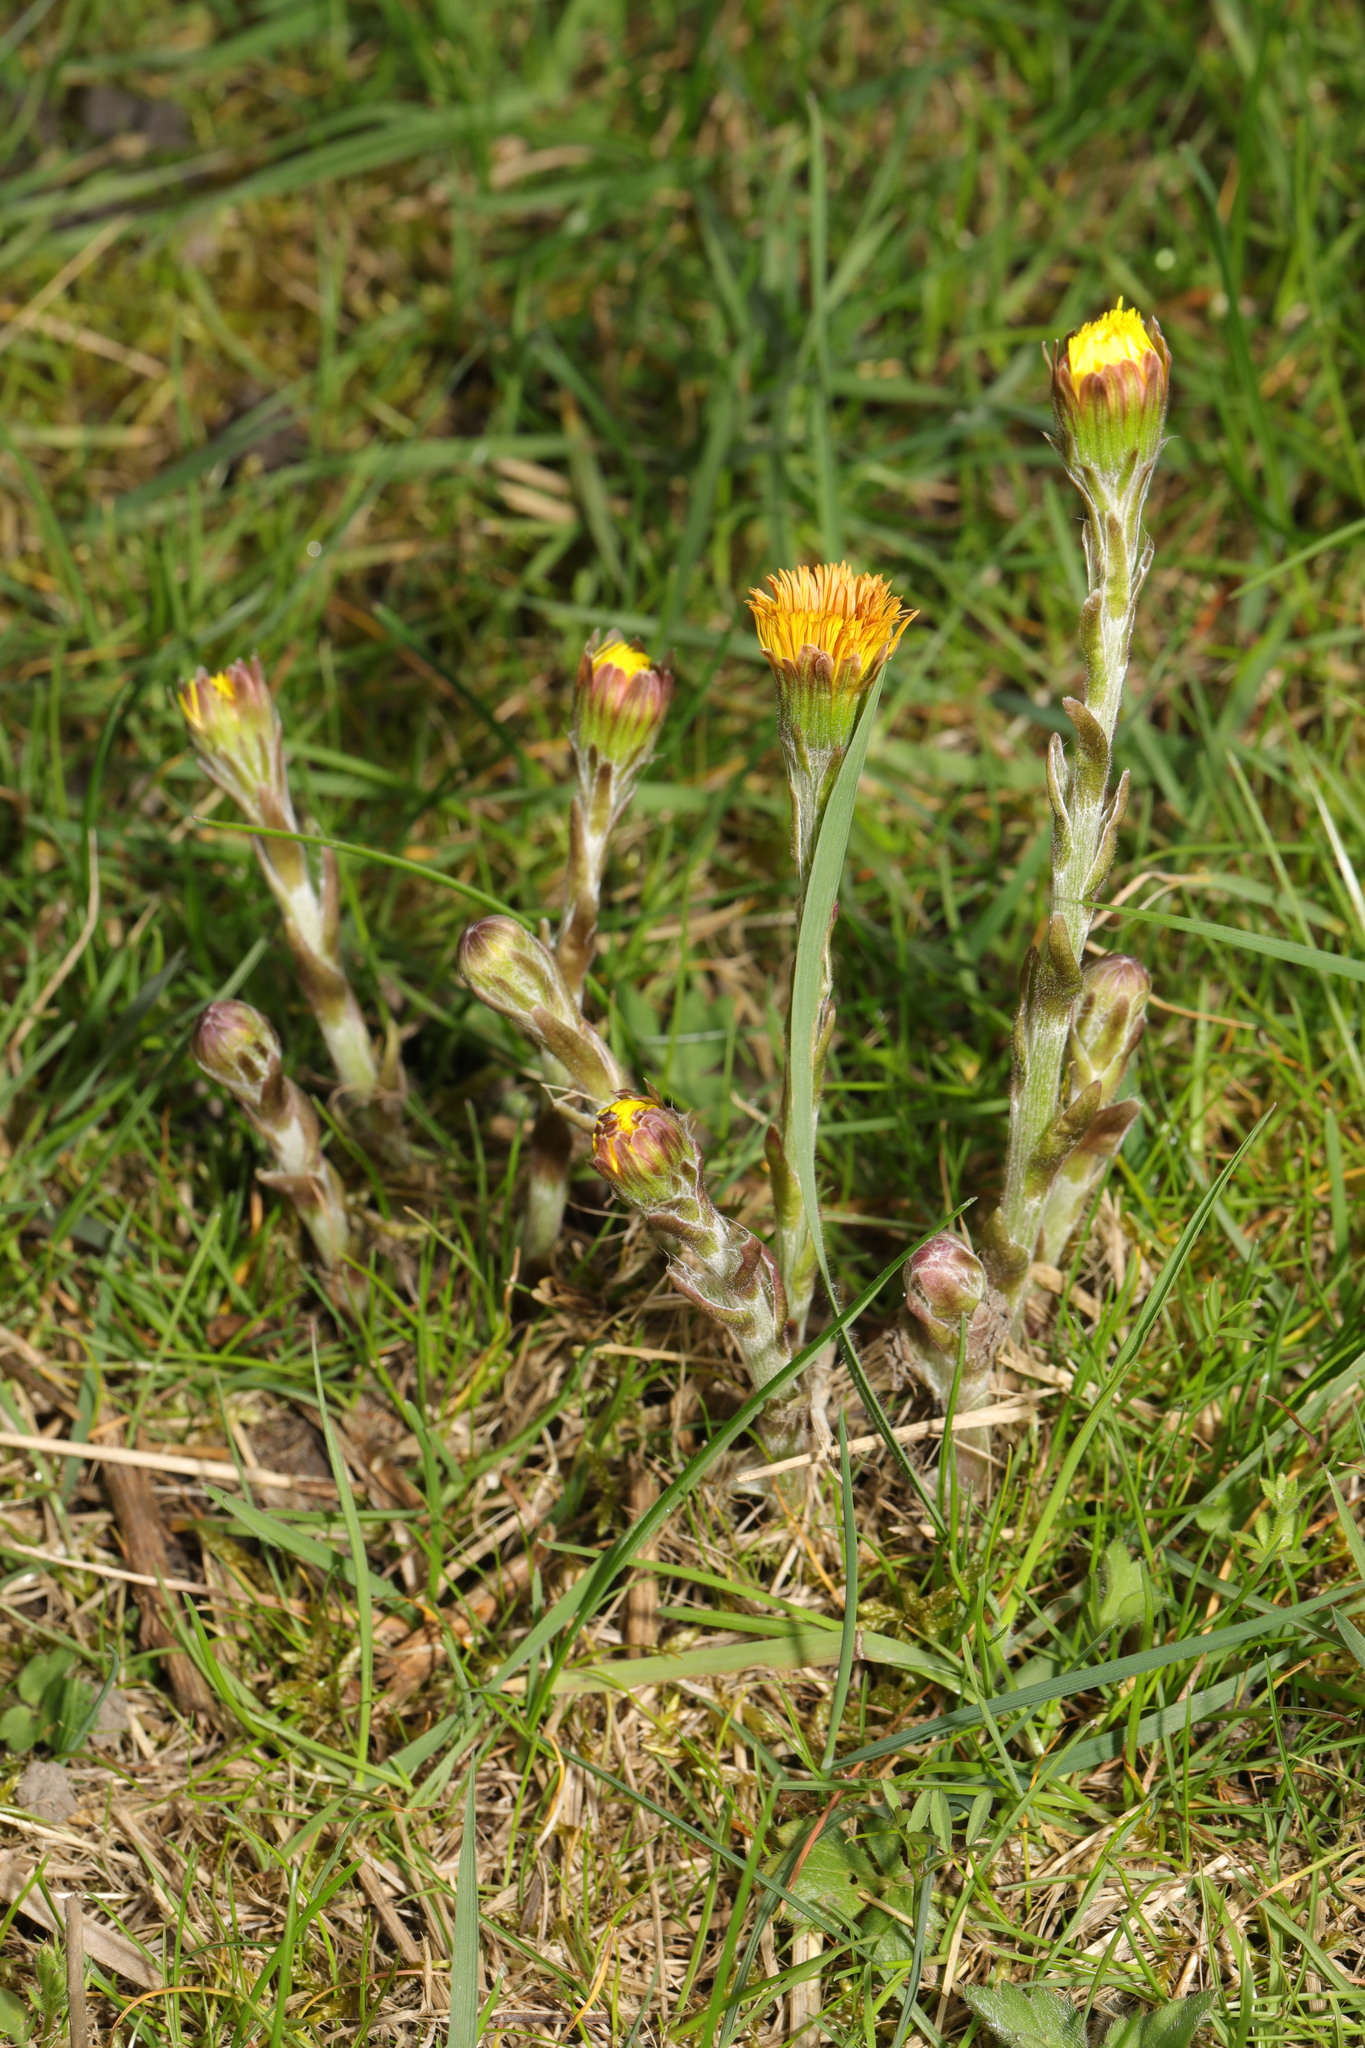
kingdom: Plantae
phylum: Tracheophyta
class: Magnoliopsida
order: Asterales
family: Asteraceae
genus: Tussilago
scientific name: Tussilago farfara
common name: Coltsfoot
